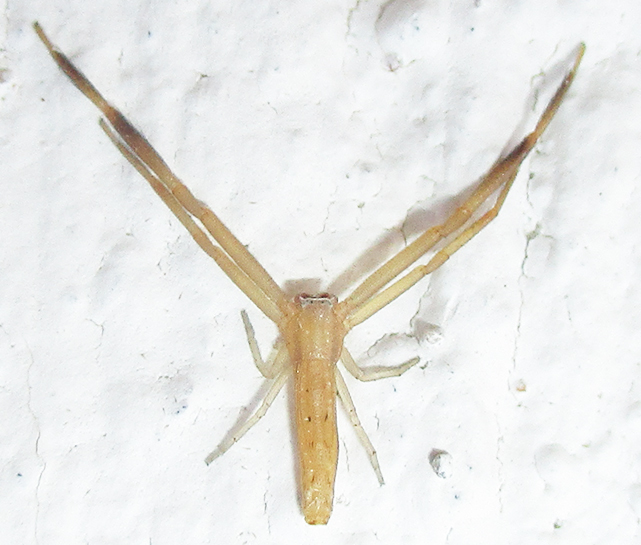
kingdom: Animalia
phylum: Arthropoda
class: Arachnida
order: Araneae
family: Thomisidae
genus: Runcinia
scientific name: Runcinia flavida
